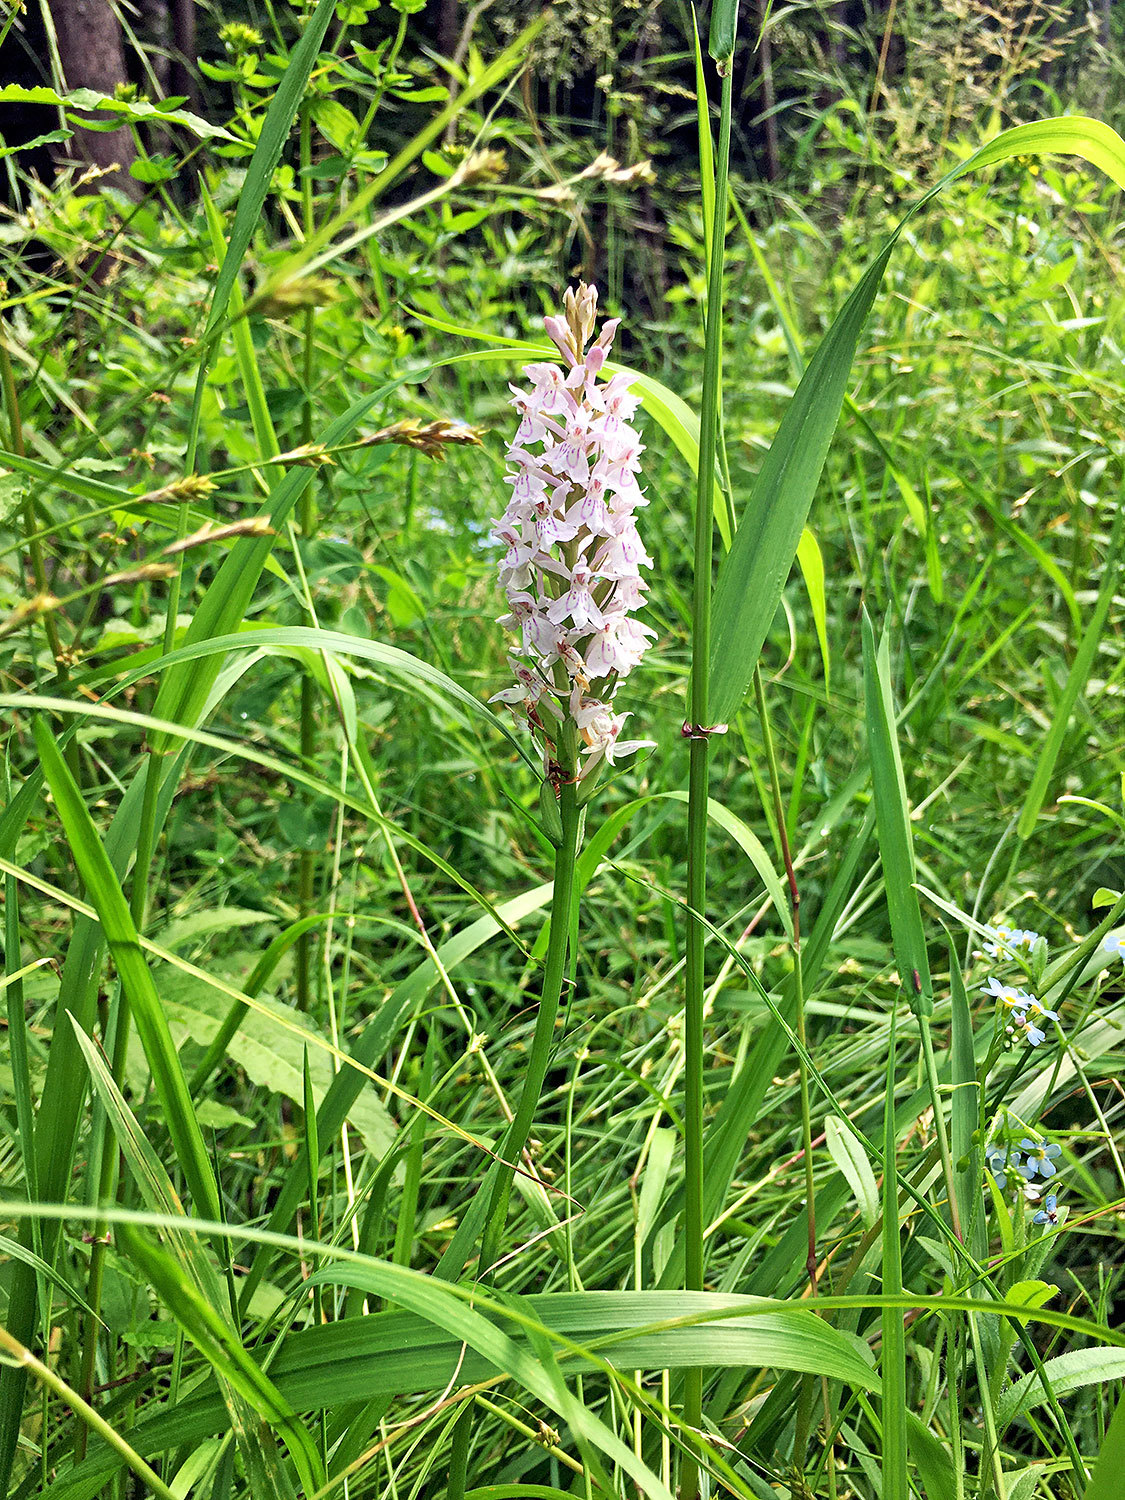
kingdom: Plantae
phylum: Tracheophyta
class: Liliopsida
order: Asparagales
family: Orchidaceae
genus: Dactylorhiza
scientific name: Dactylorhiza maculata
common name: Heath spotted-orchid
